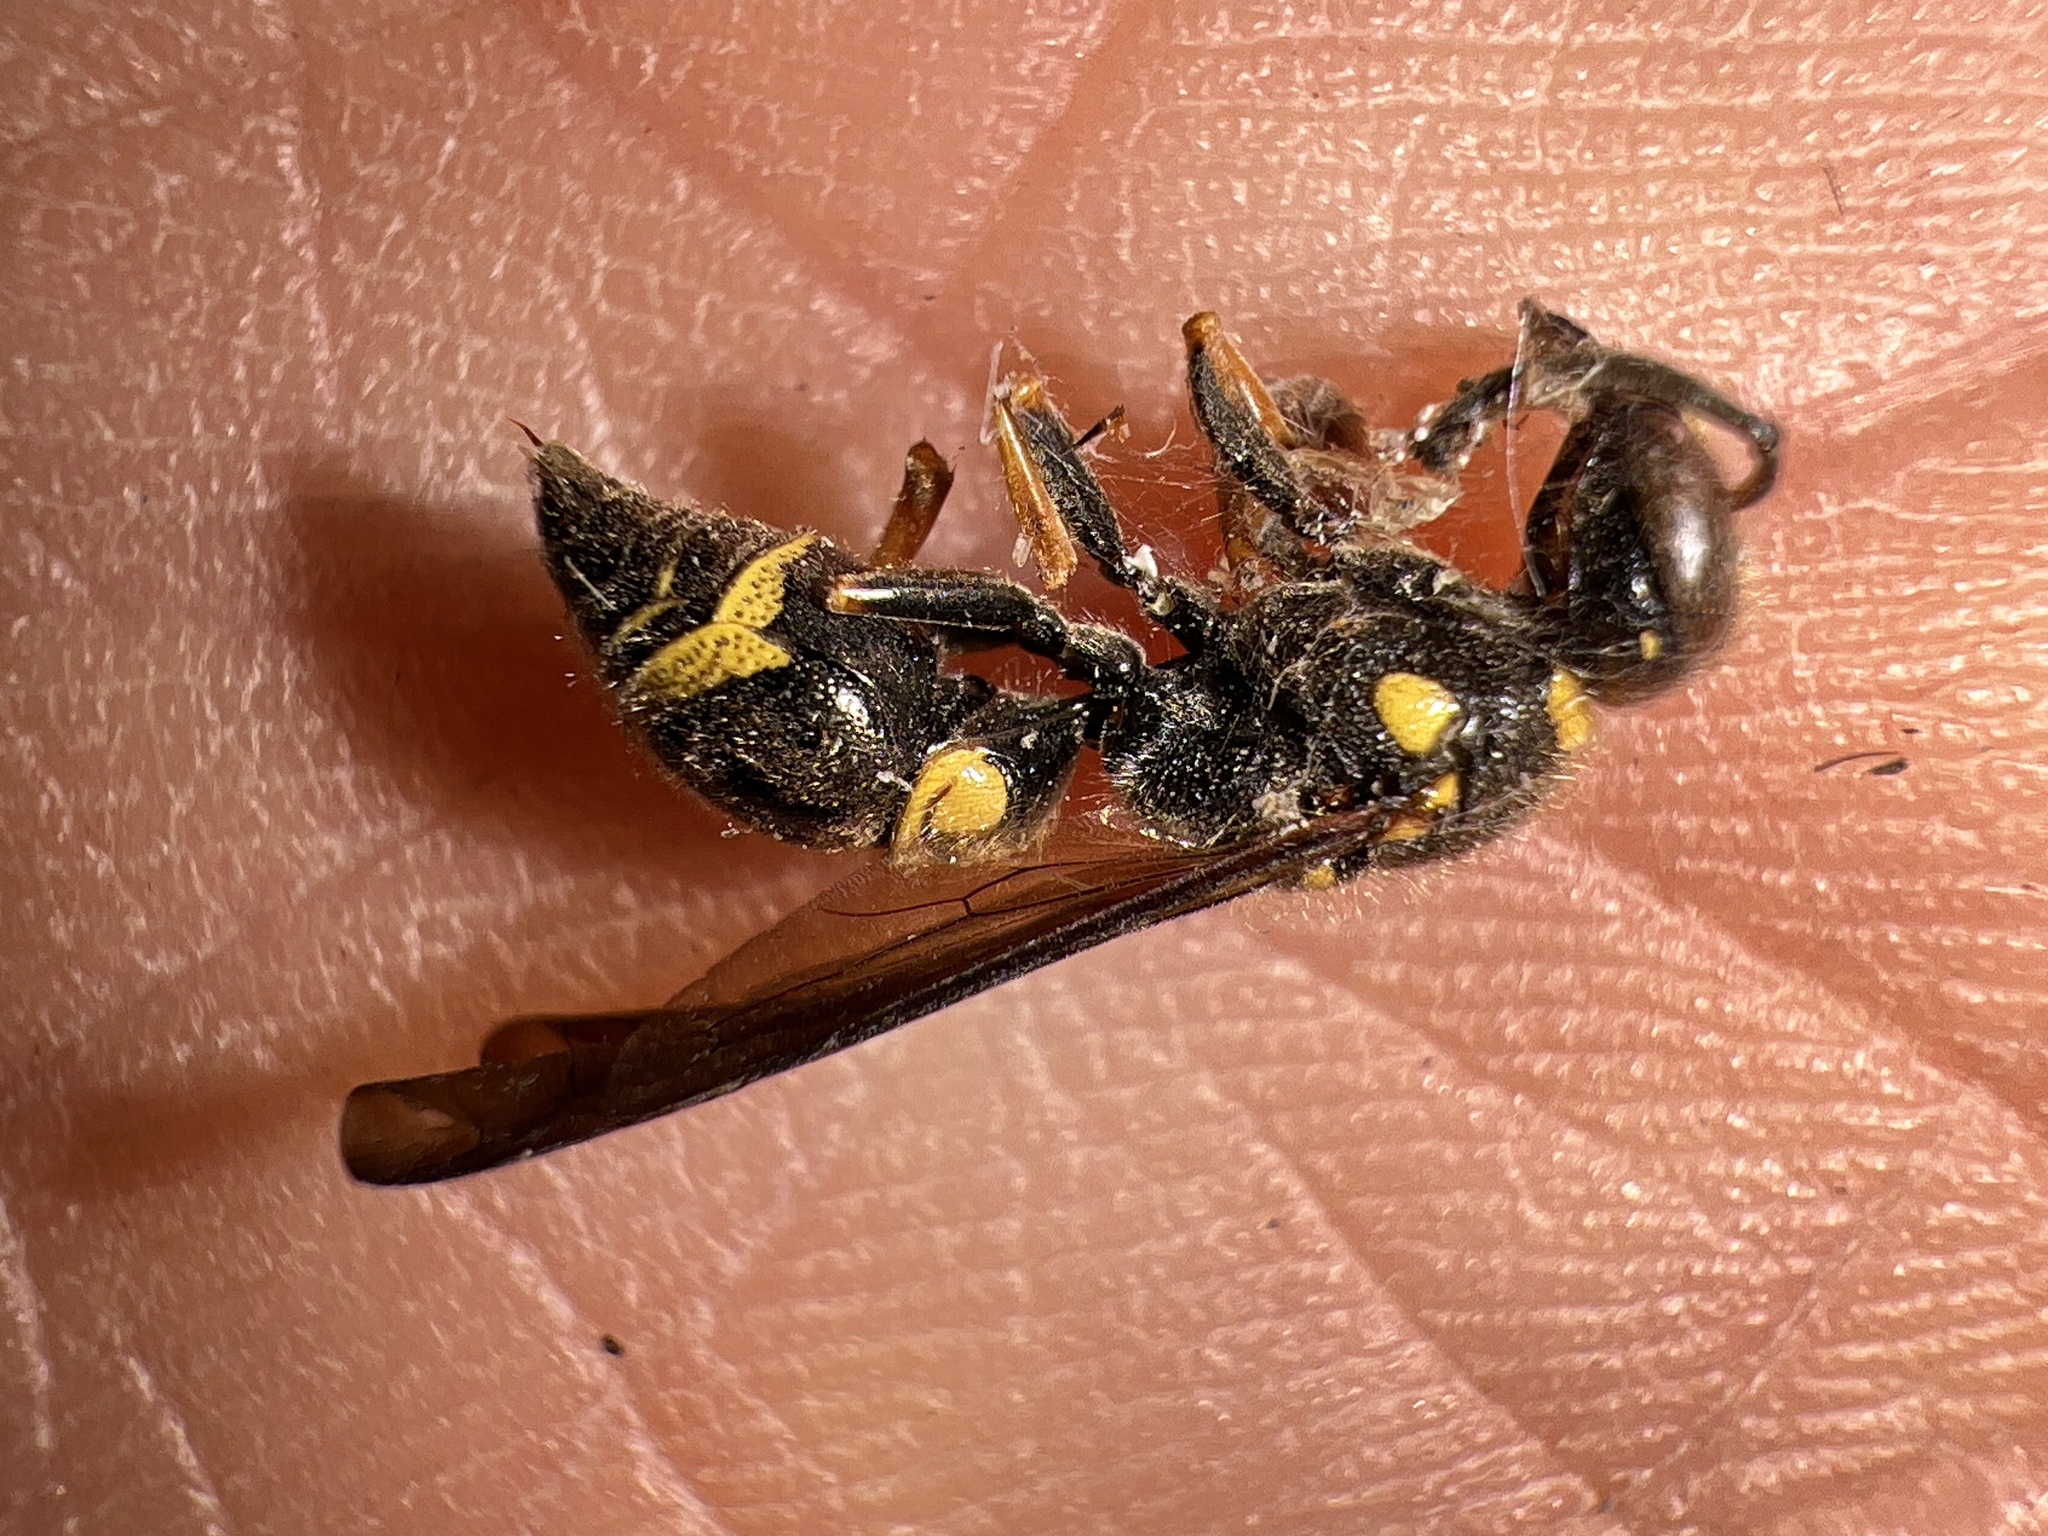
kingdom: Animalia
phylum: Arthropoda
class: Insecta
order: Hymenoptera
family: Vespidae
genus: Ancistrocerus
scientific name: Ancistrocerus campestris
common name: Smiling mason wasp
